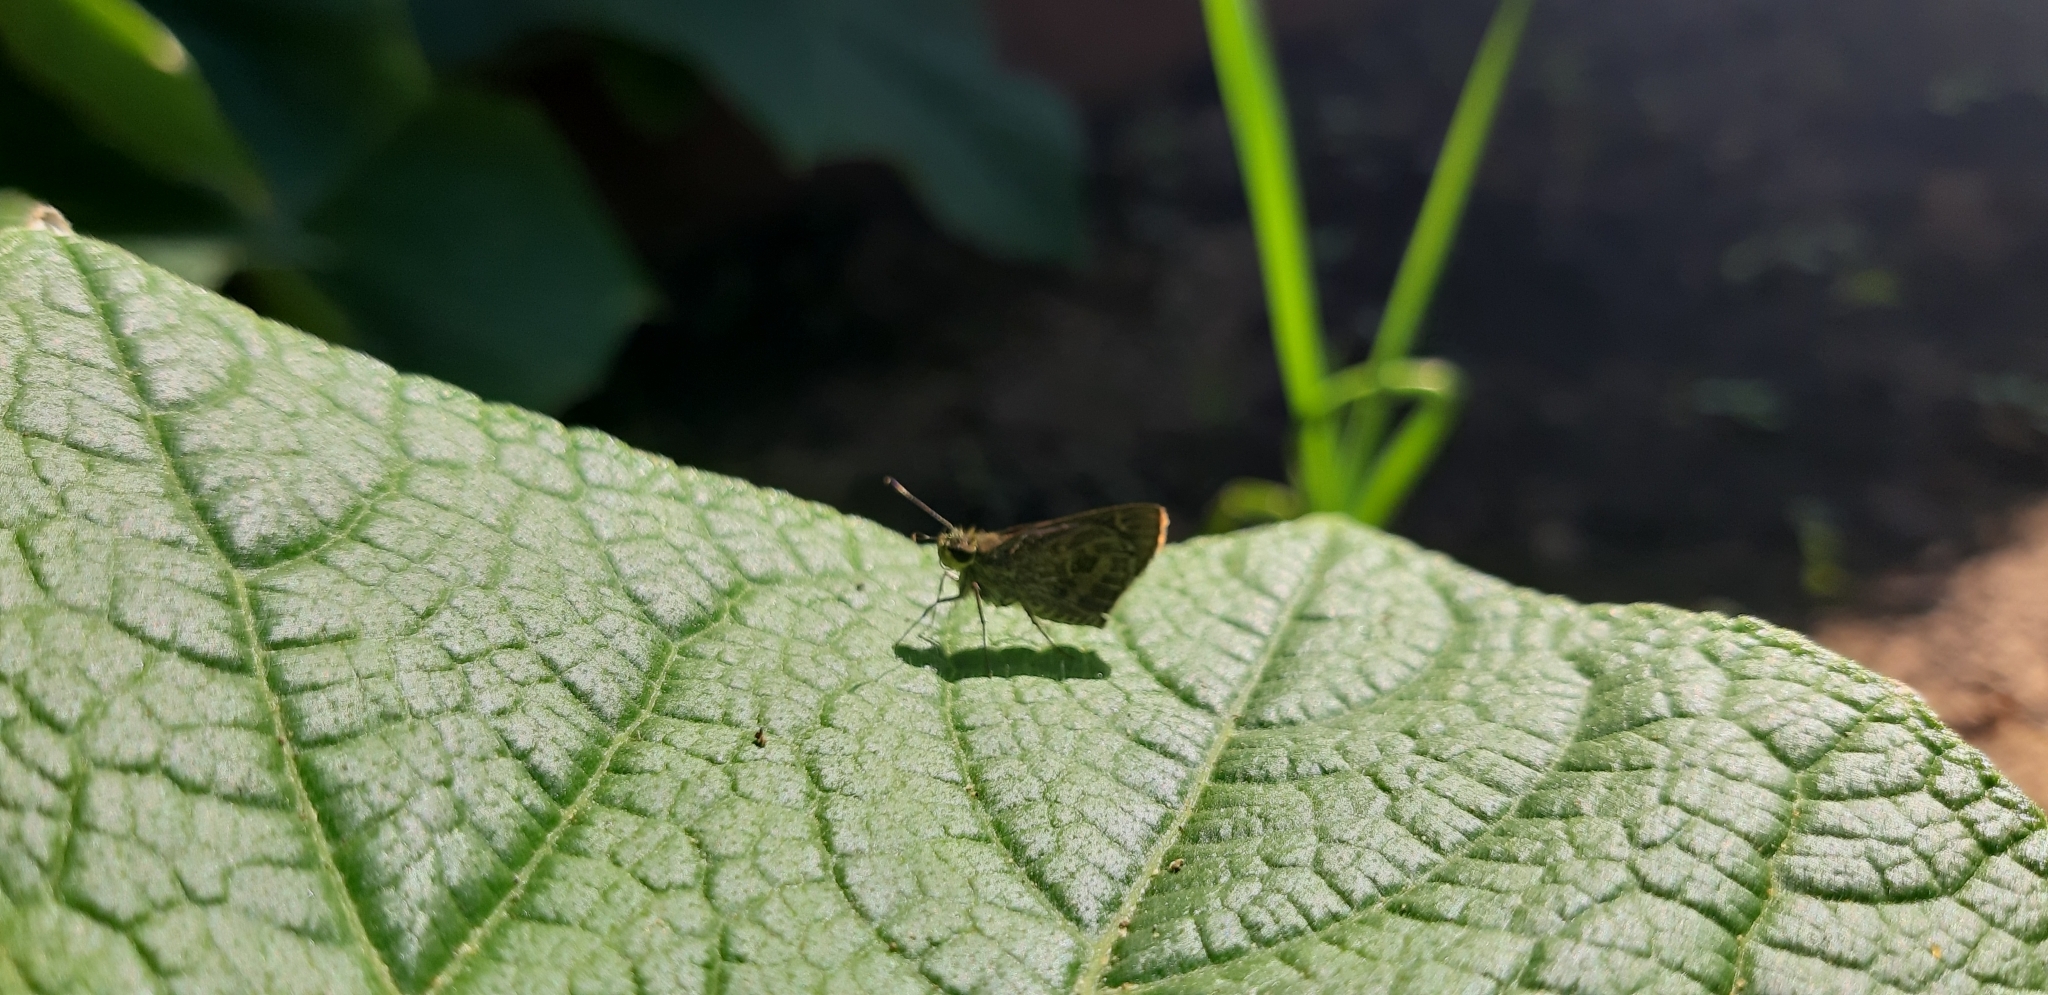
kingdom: Animalia
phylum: Arthropoda
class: Insecta
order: Lepidoptera
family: Hesperiidae
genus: Callimormus
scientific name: Callimormus corades
